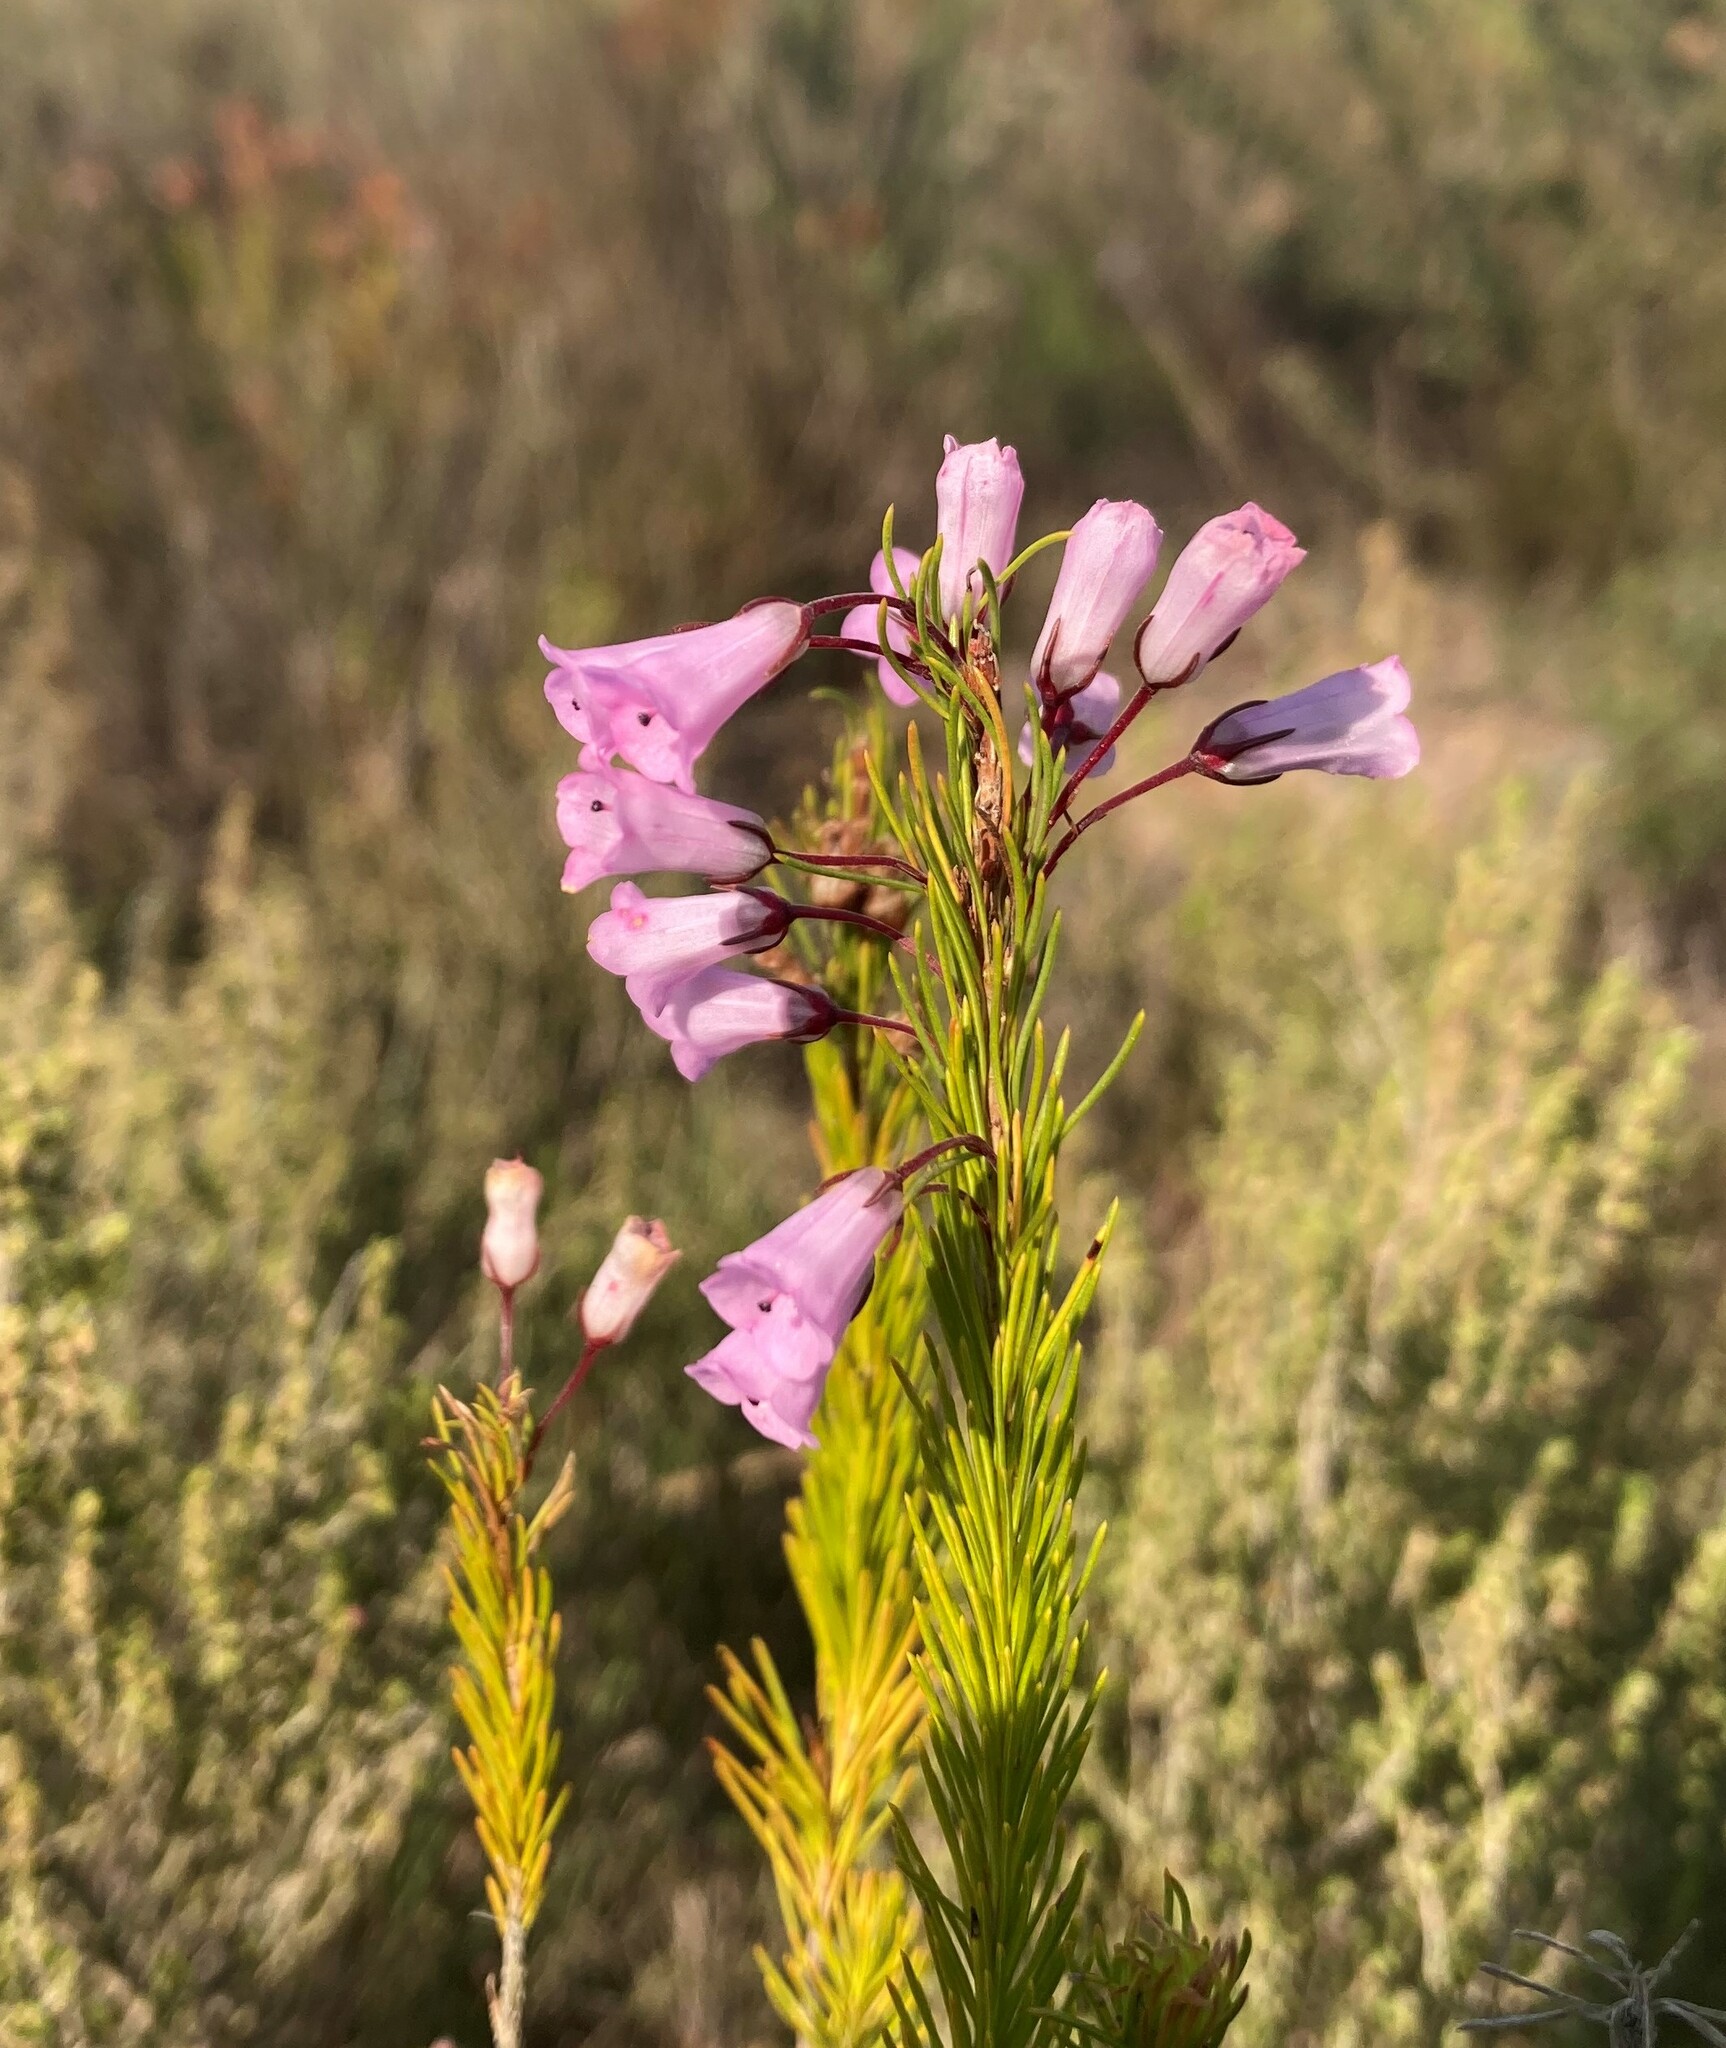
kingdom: Plantae
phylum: Tracheophyta
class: Magnoliopsida
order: Ericales
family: Ericaceae
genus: Erica
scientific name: Erica filamentosa
